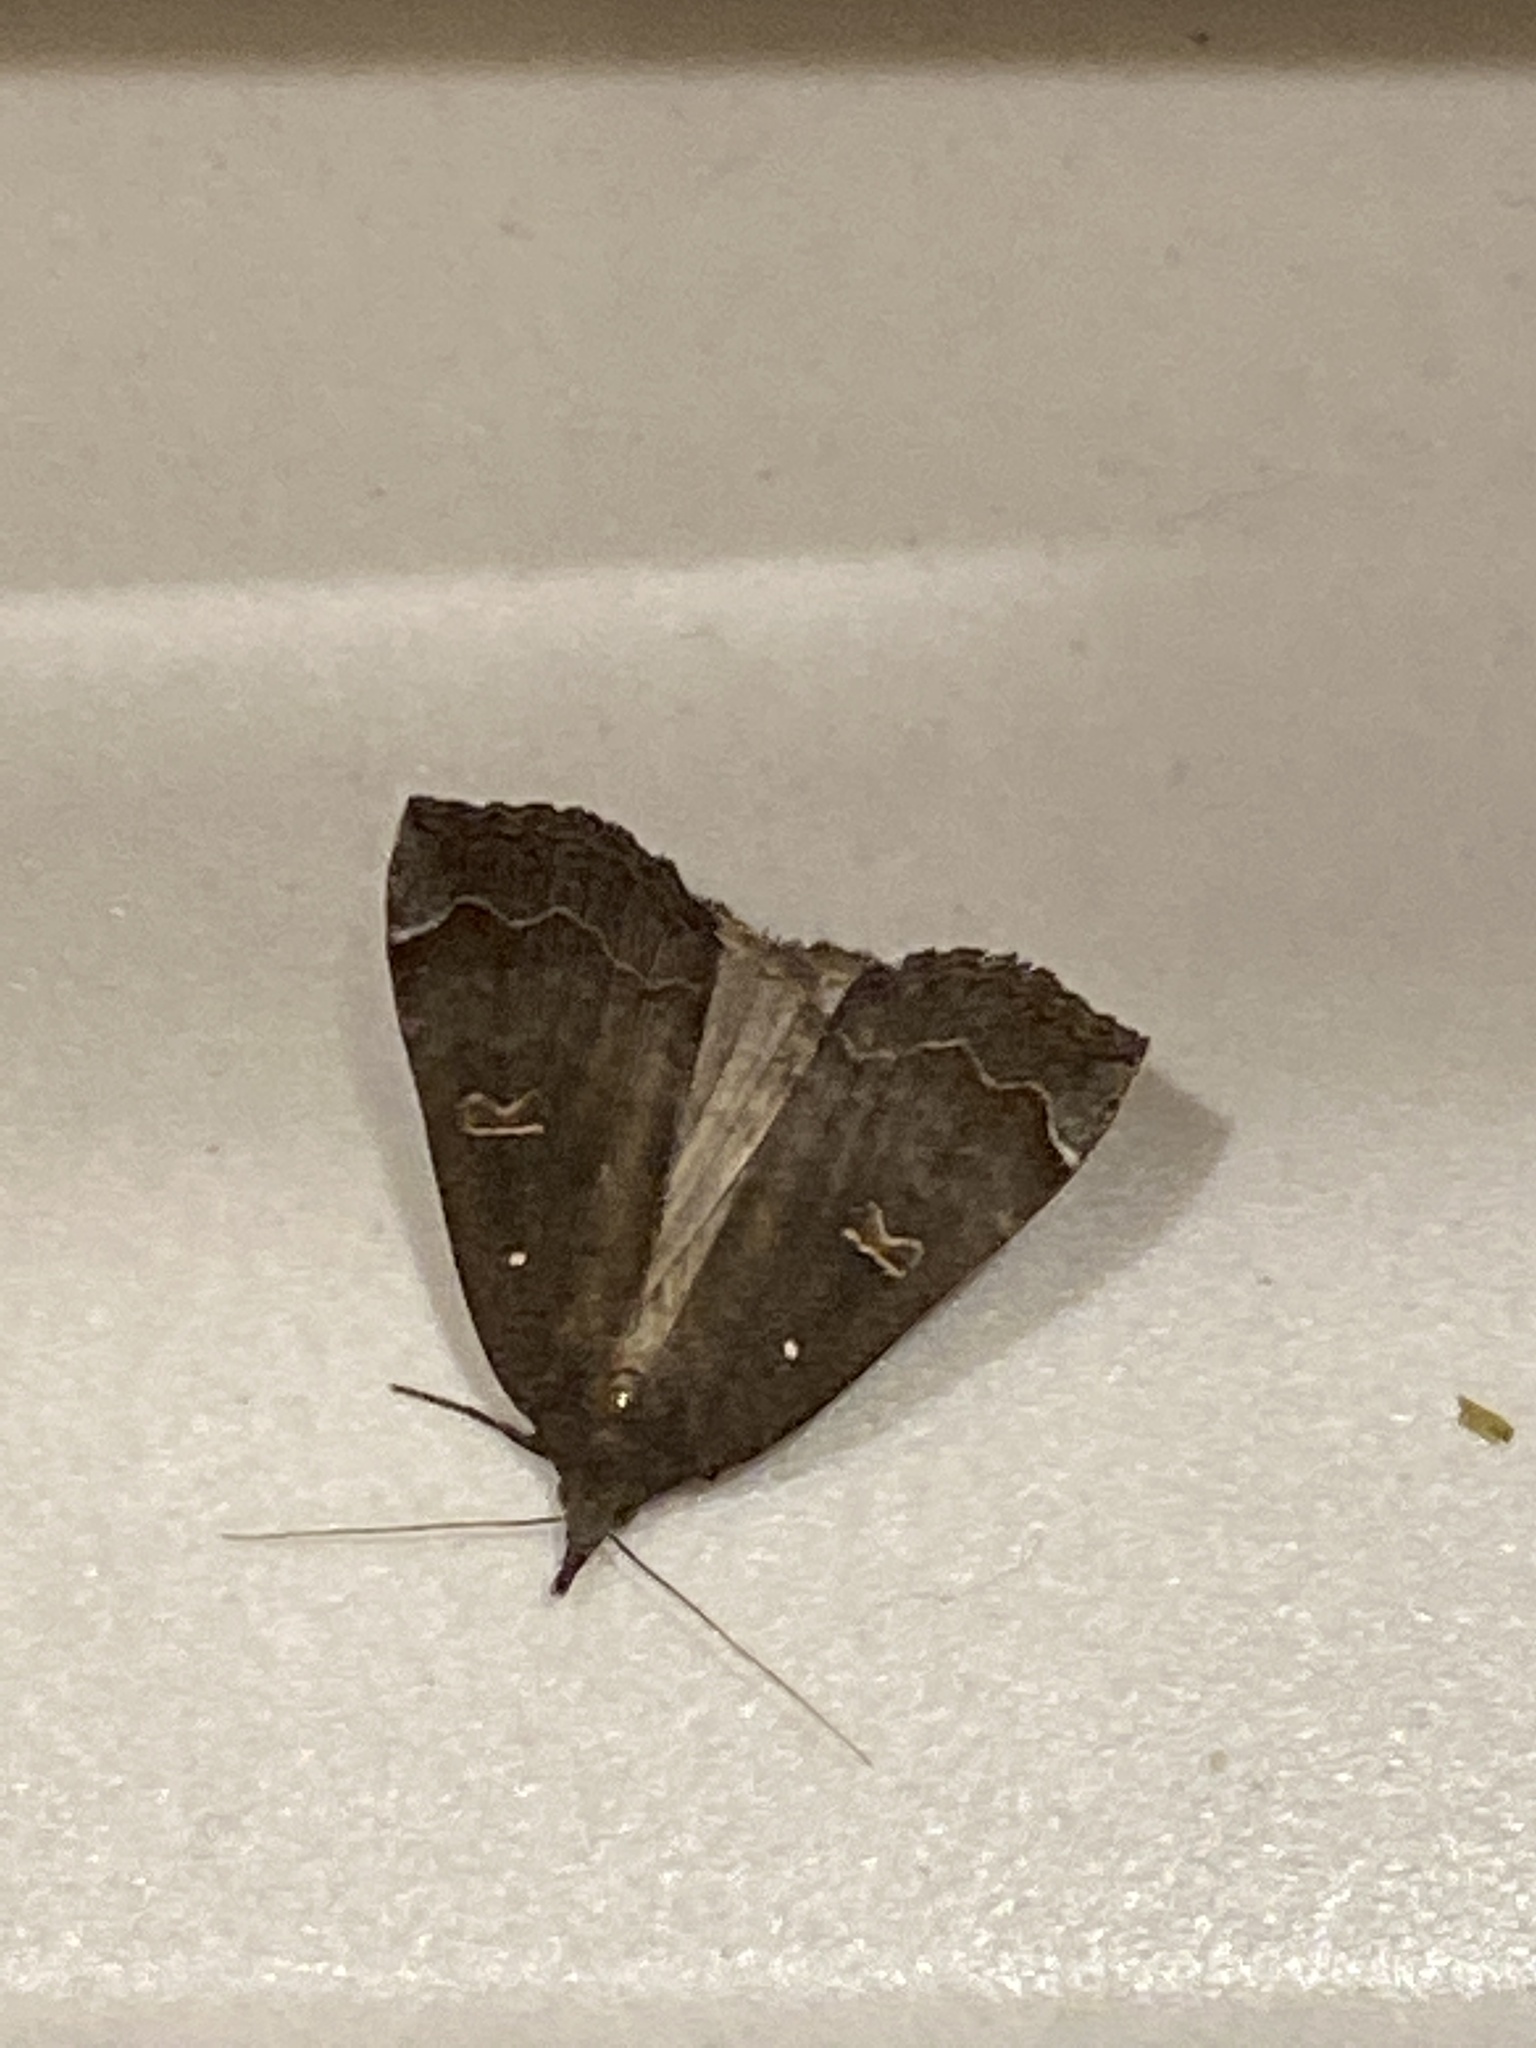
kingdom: Animalia
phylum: Arthropoda
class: Insecta
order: Lepidoptera
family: Erebidae
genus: Rhapsa
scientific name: Rhapsa scotosialis
